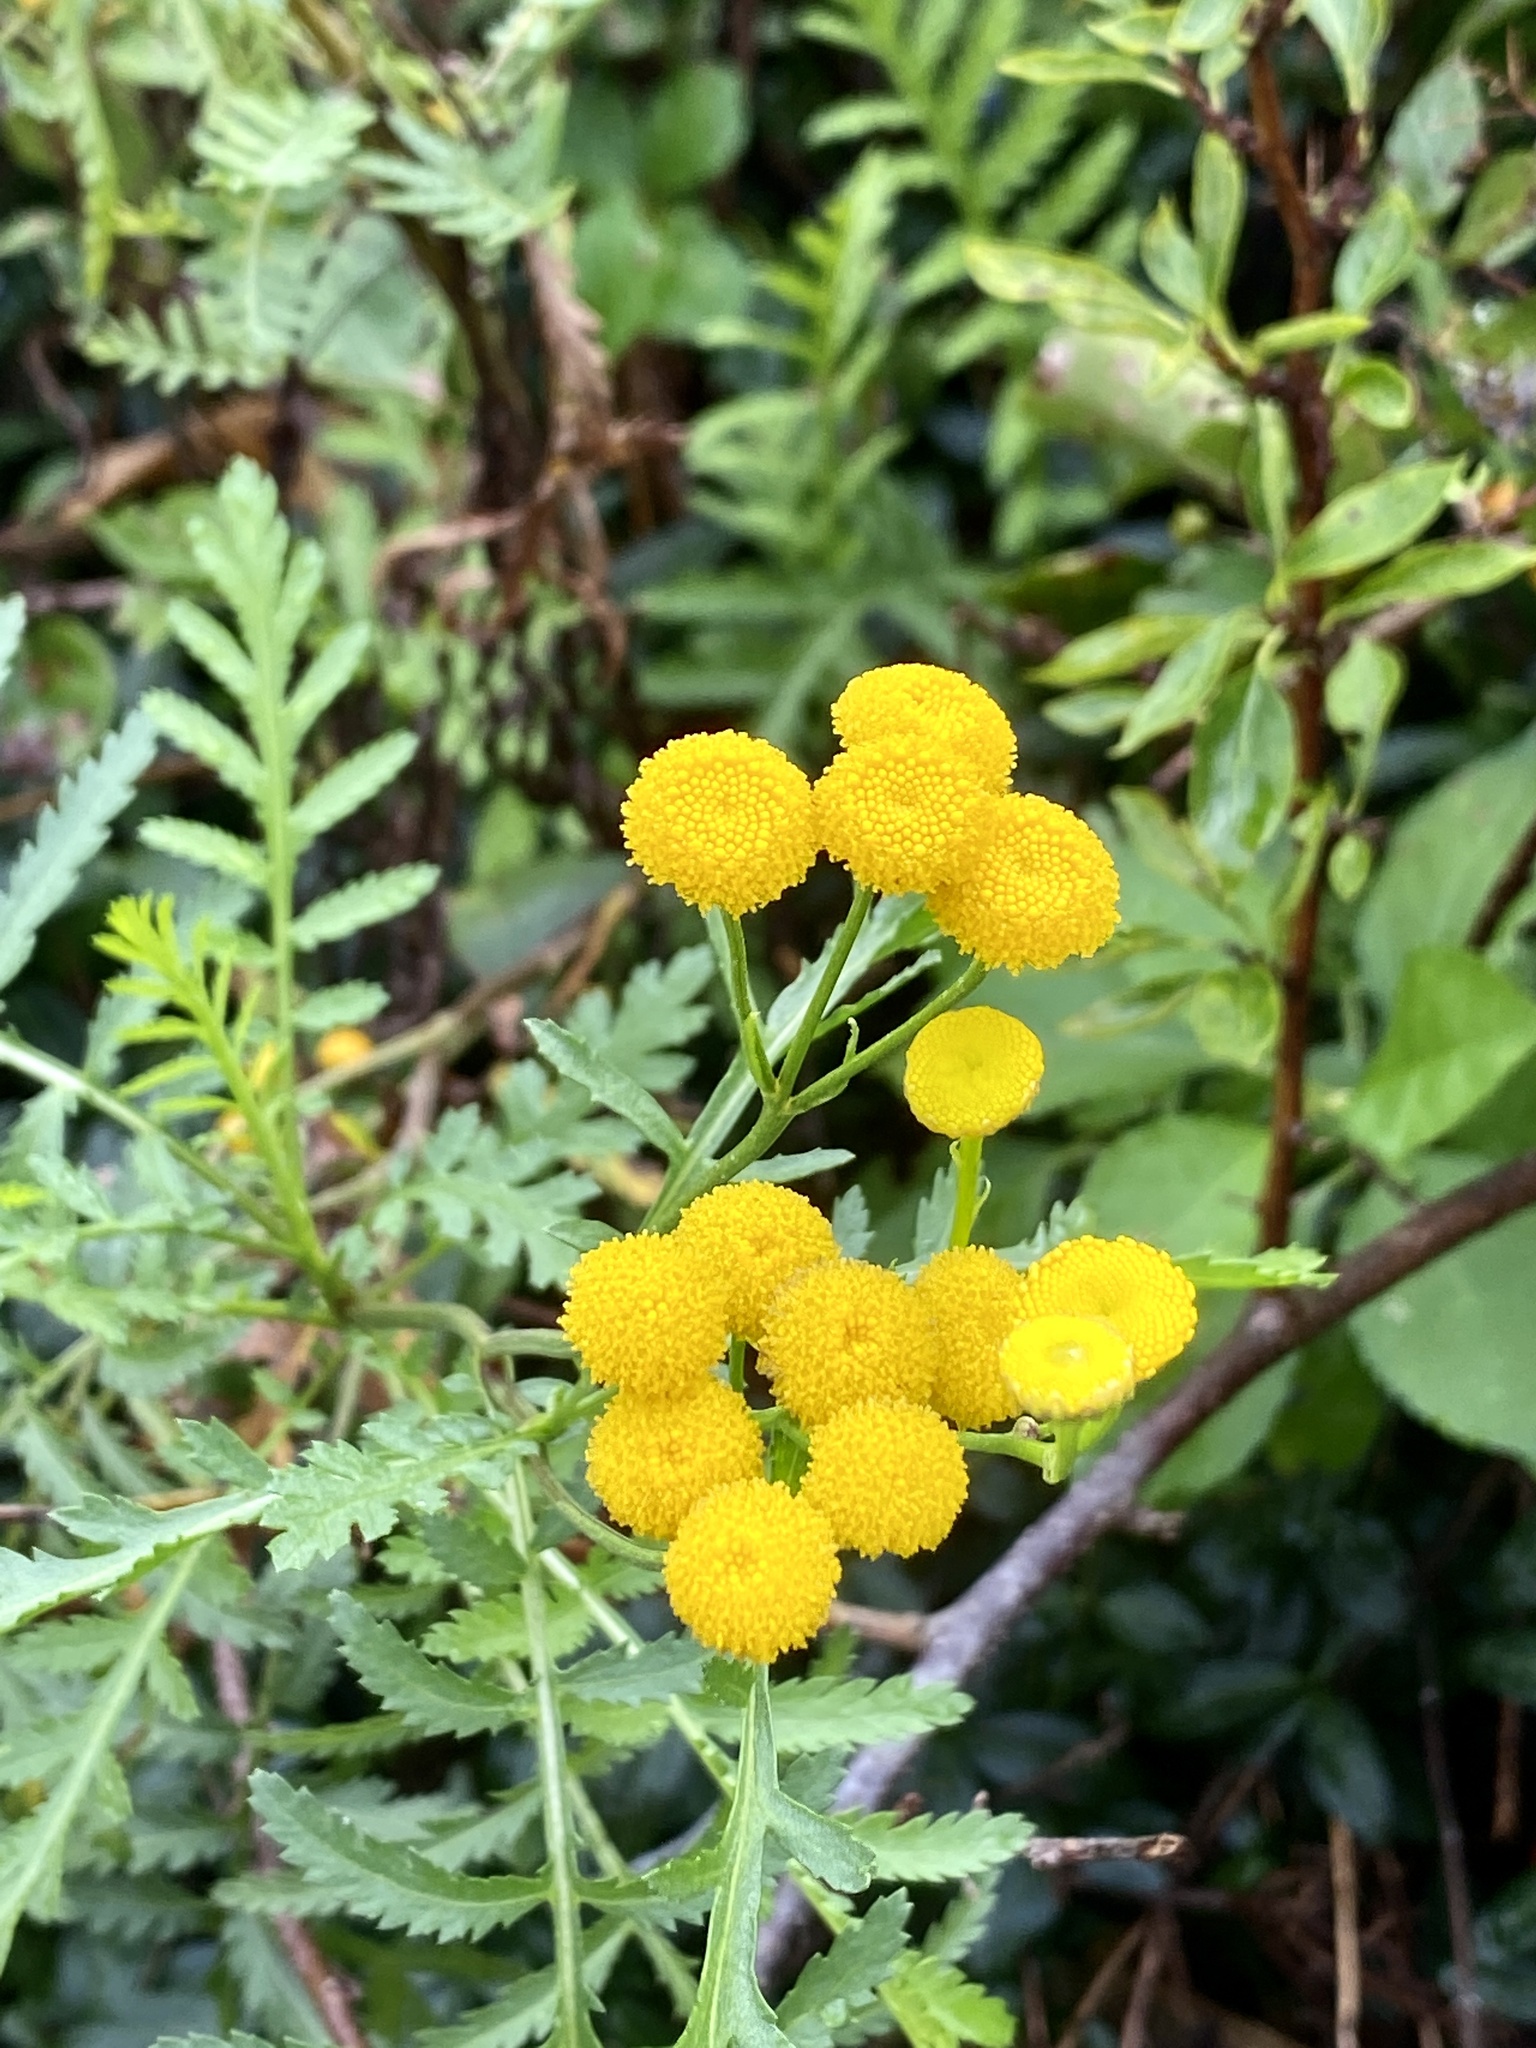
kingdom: Plantae
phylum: Tracheophyta
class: Magnoliopsida
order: Asterales
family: Asteraceae
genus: Tanacetum
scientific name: Tanacetum vulgare
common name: Common tansy
